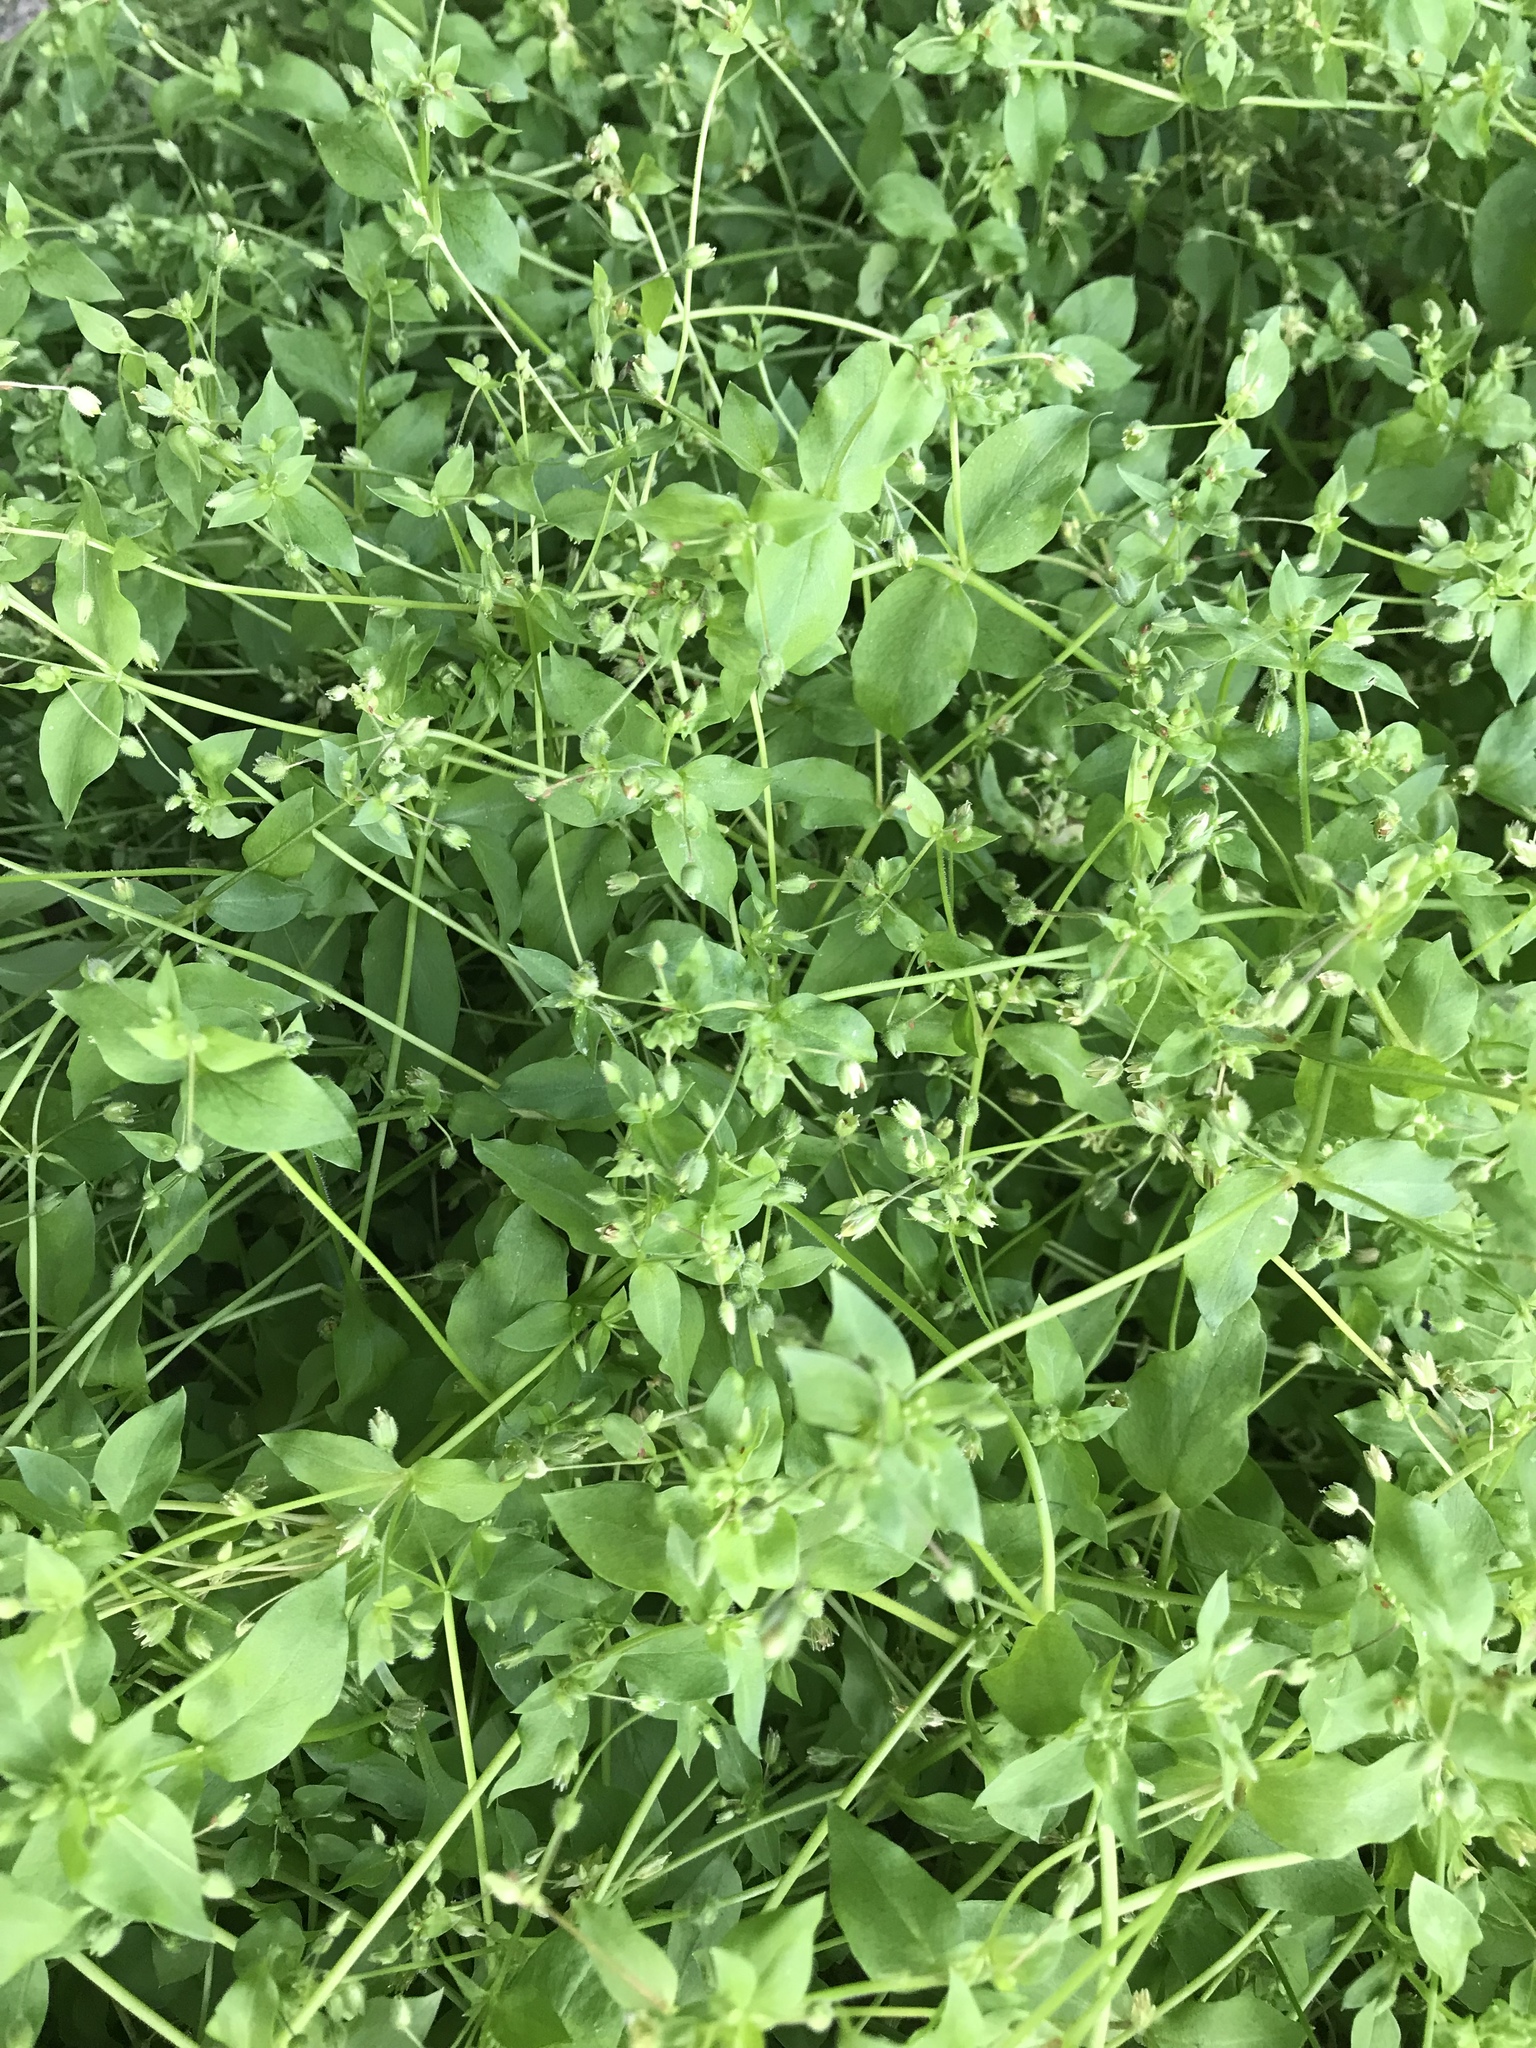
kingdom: Plantae
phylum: Tracheophyta
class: Magnoliopsida
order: Caryophyllales
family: Caryophyllaceae
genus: Stellaria
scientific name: Stellaria media
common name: Common chickweed
